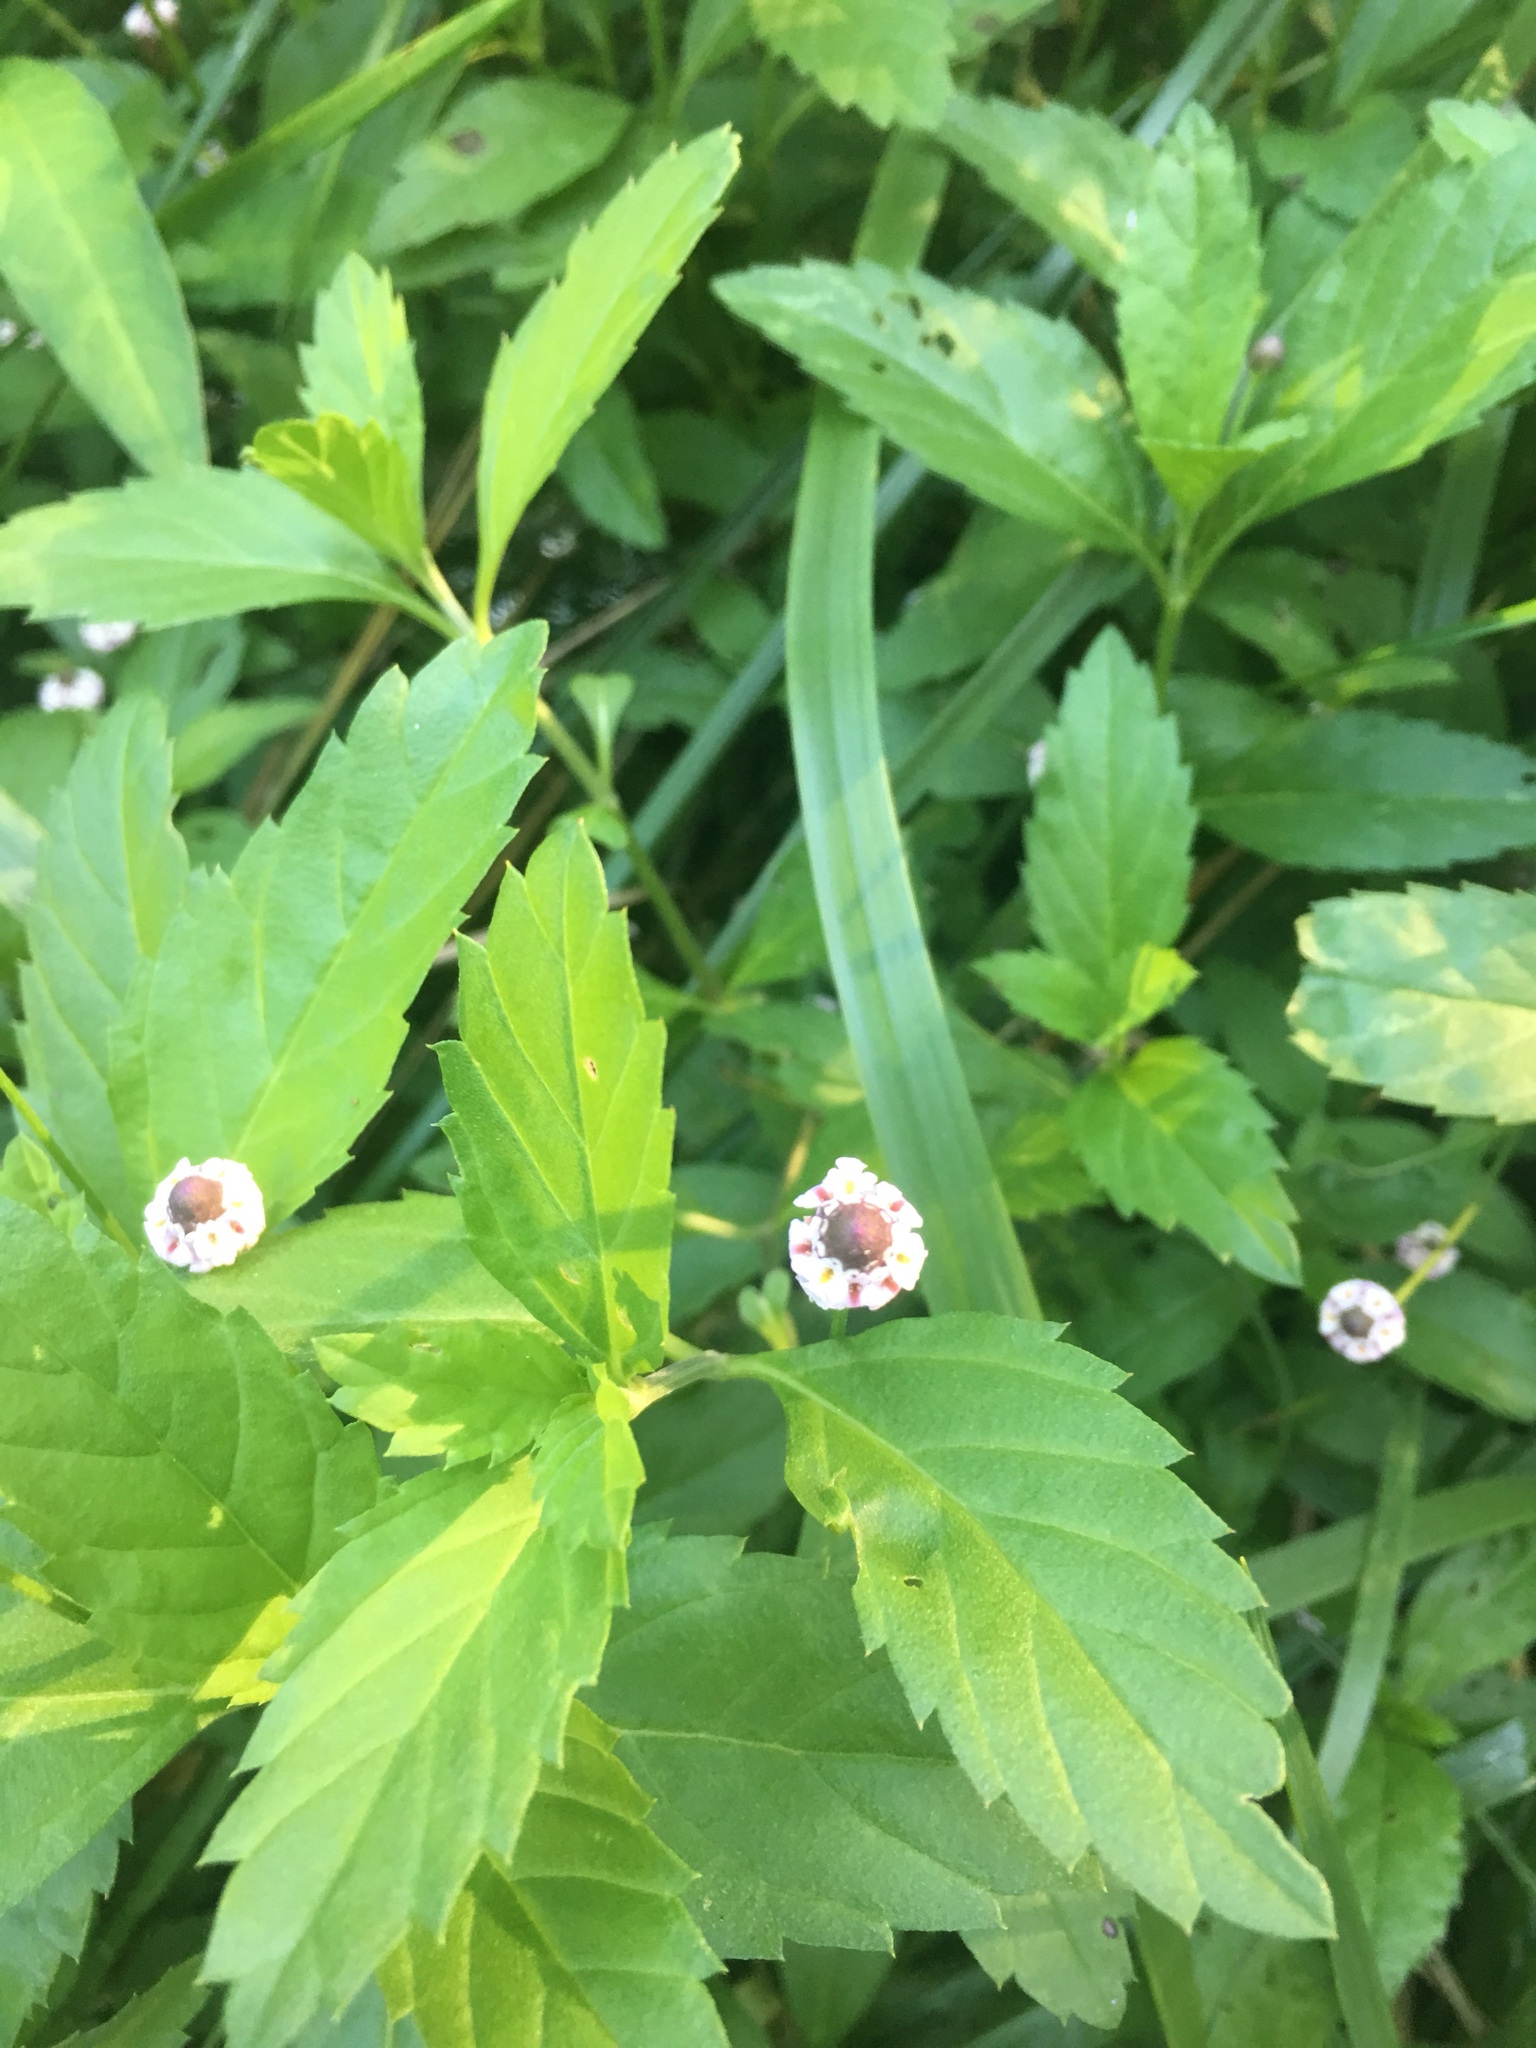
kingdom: Plantae
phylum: Tracheophyta
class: Magnoliopsida
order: Lamiales
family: Verbenaceae
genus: Phyla
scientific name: Phyla lanceolata
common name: Northern fogfruit
